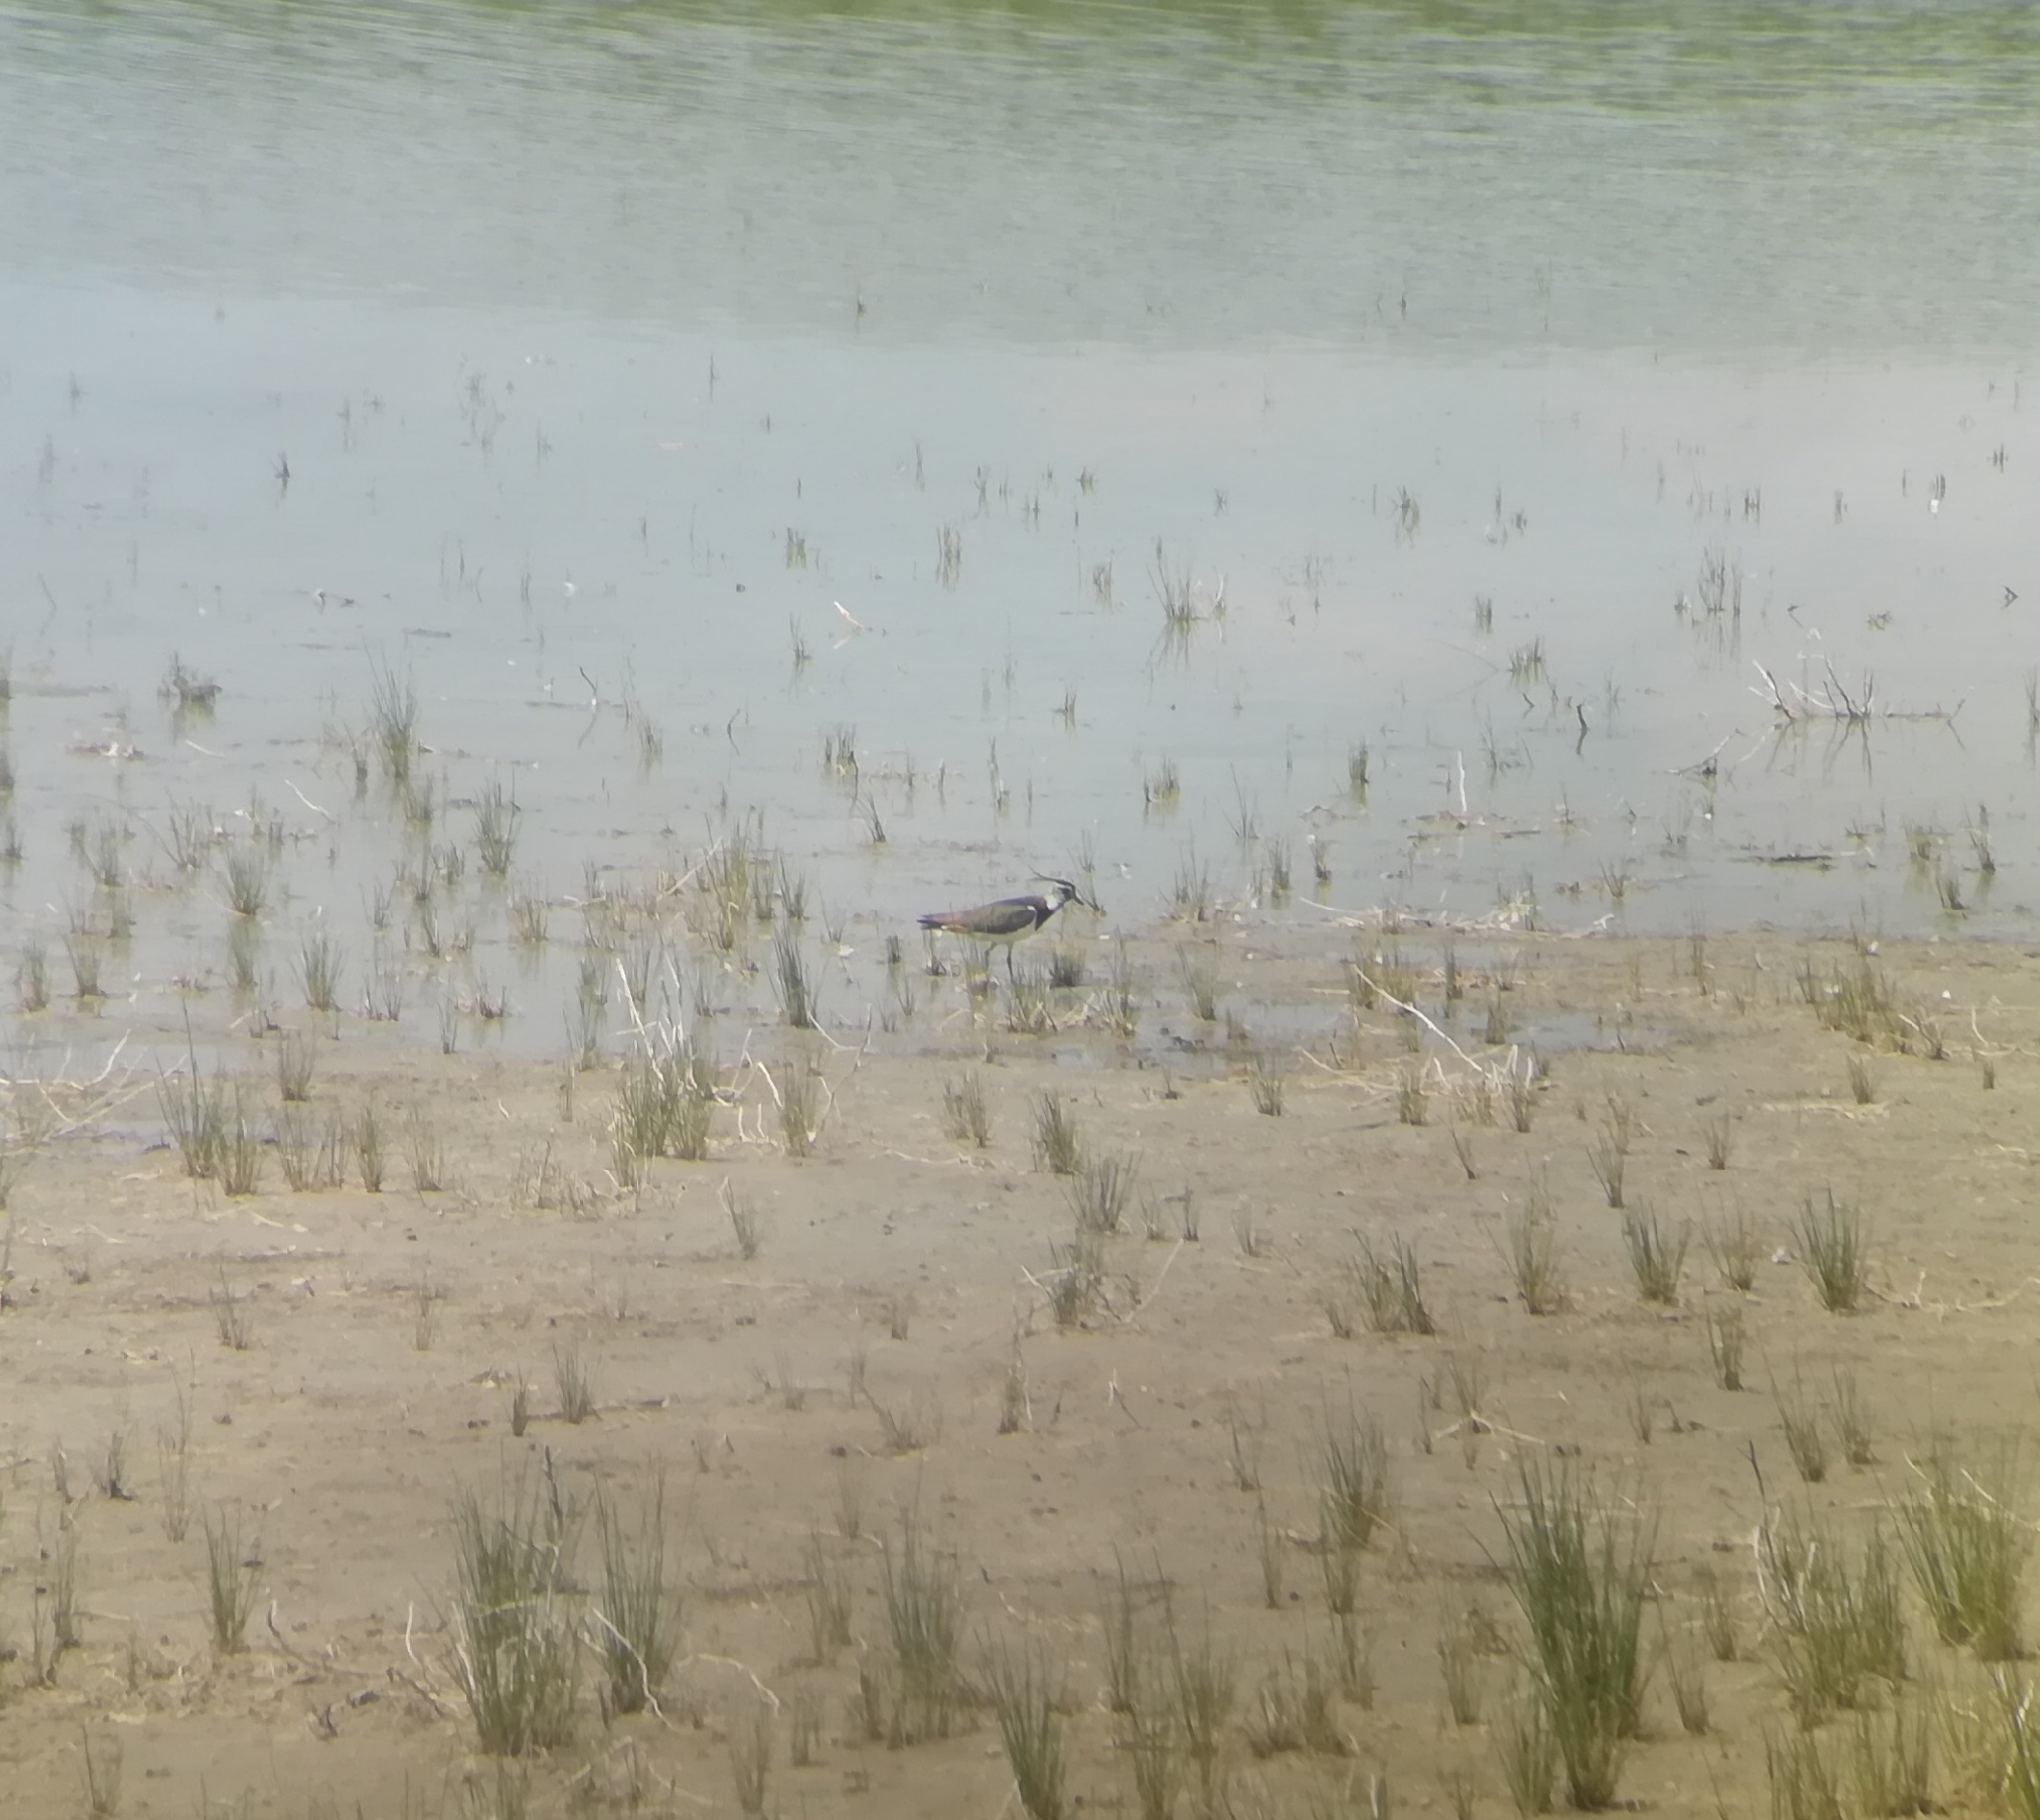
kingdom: Animalia
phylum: Chordata
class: Aves
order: Charadriiformes
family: Charadriidae
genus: Vanellus
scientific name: Vanellus vanellus
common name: Northern lapwing
